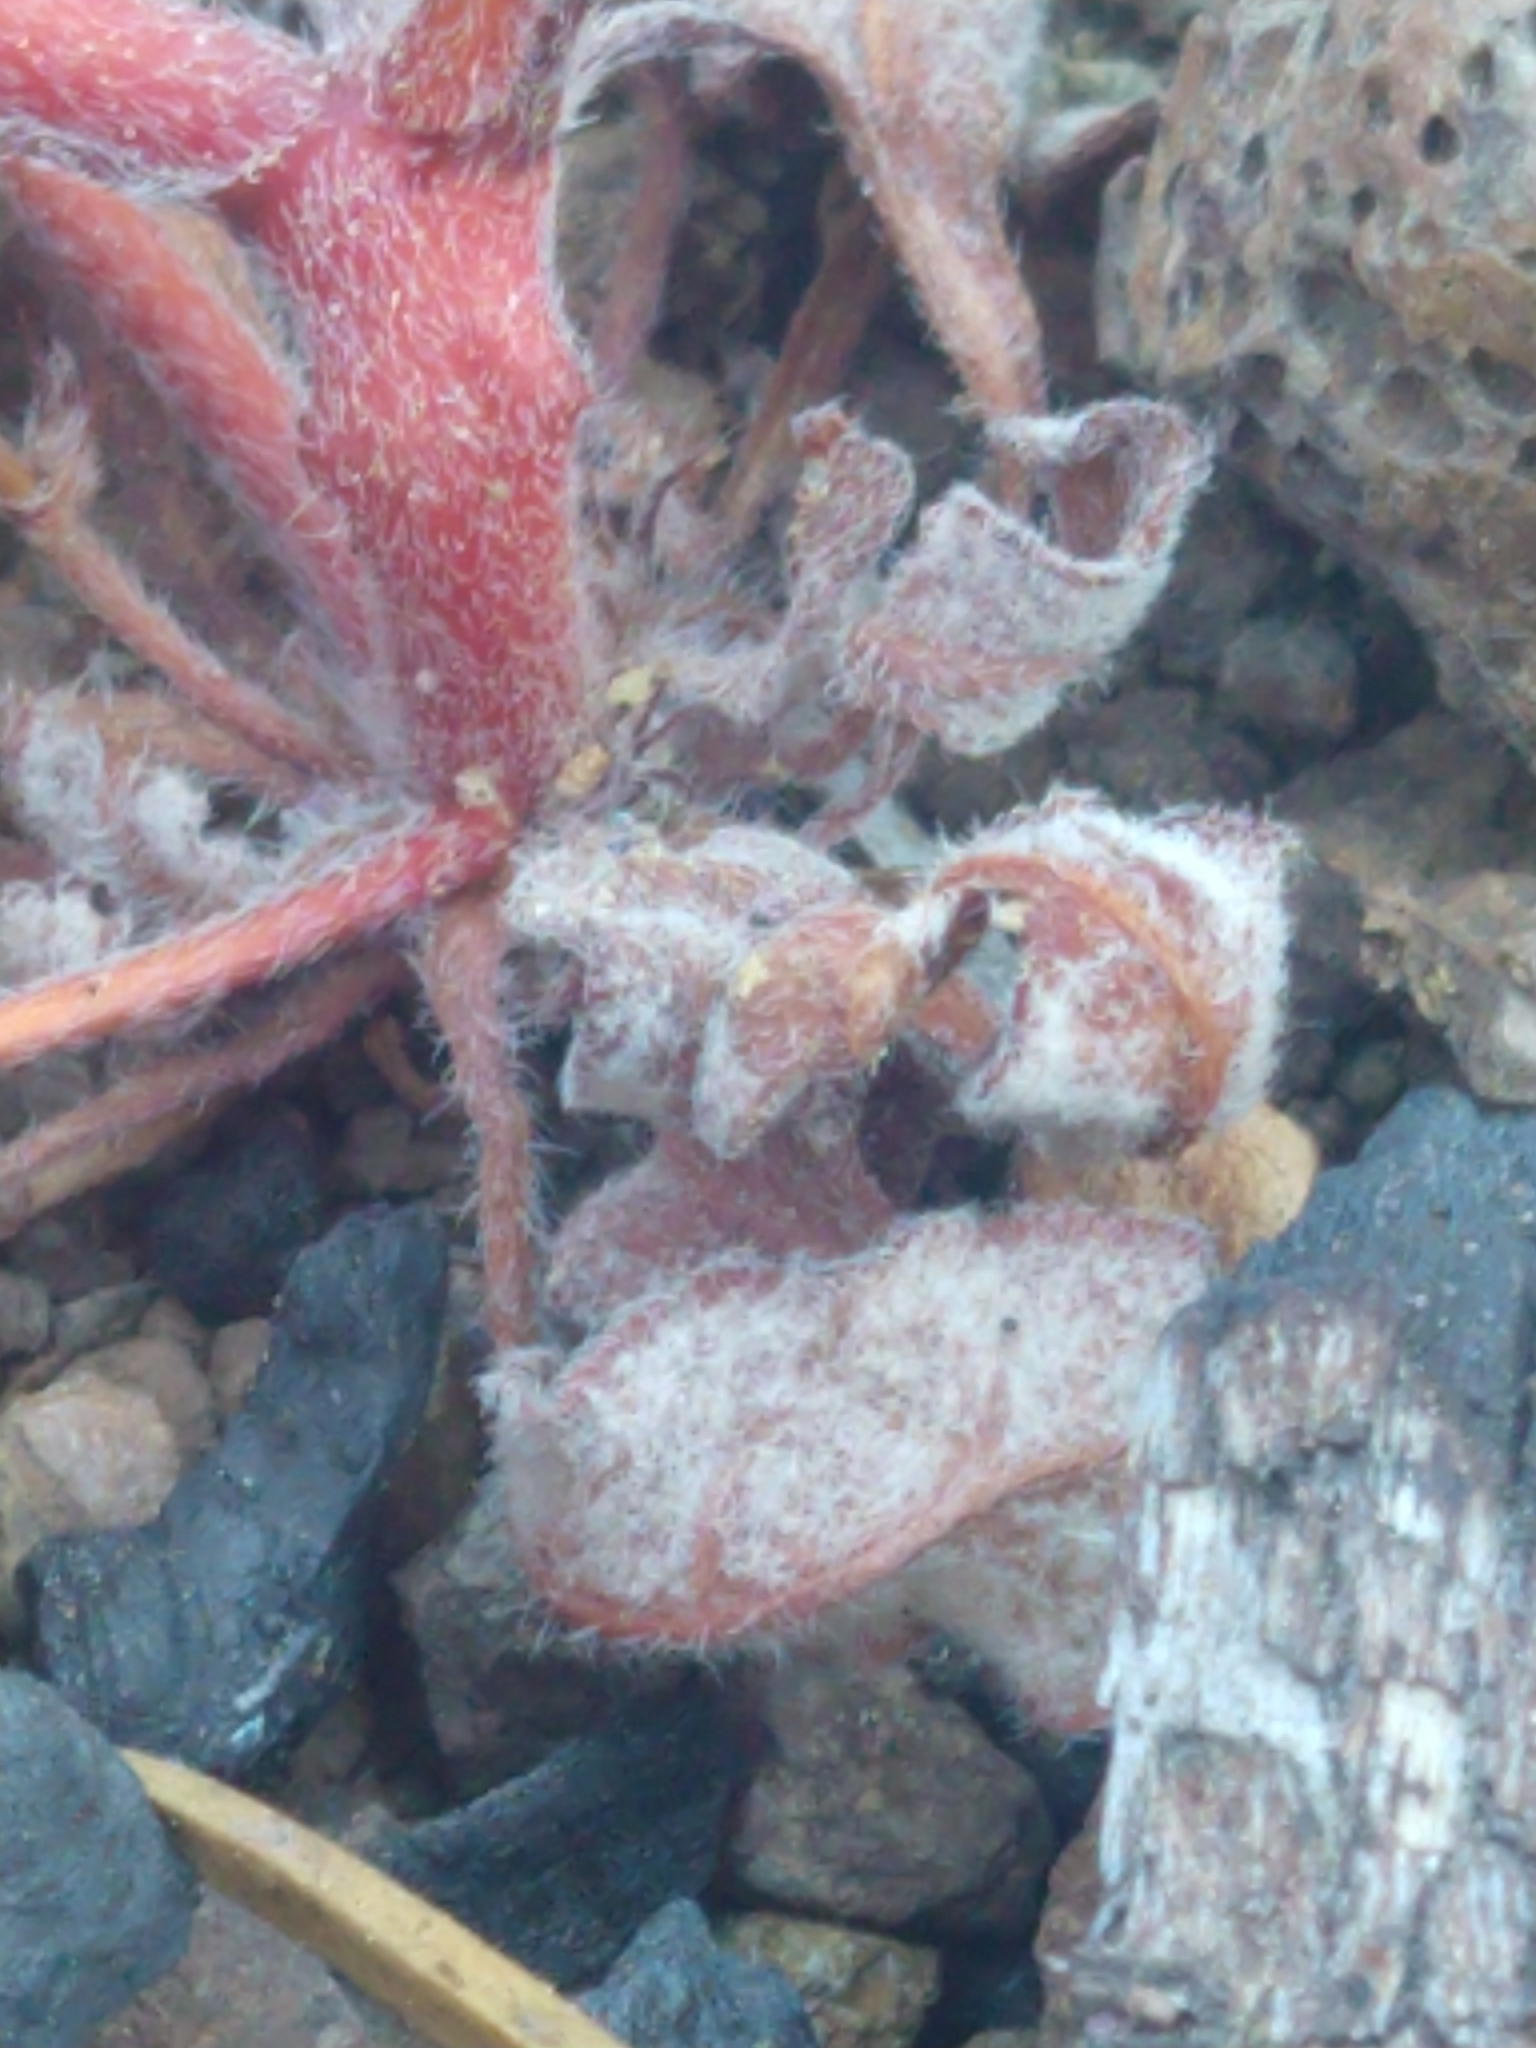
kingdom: Plantae
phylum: Tracheophyta
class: Magnoliopsida
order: Caryophyllales
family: Polygonaceae
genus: Chorizanthe
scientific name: Chorizanthe staticoides
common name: Turkish rugging
